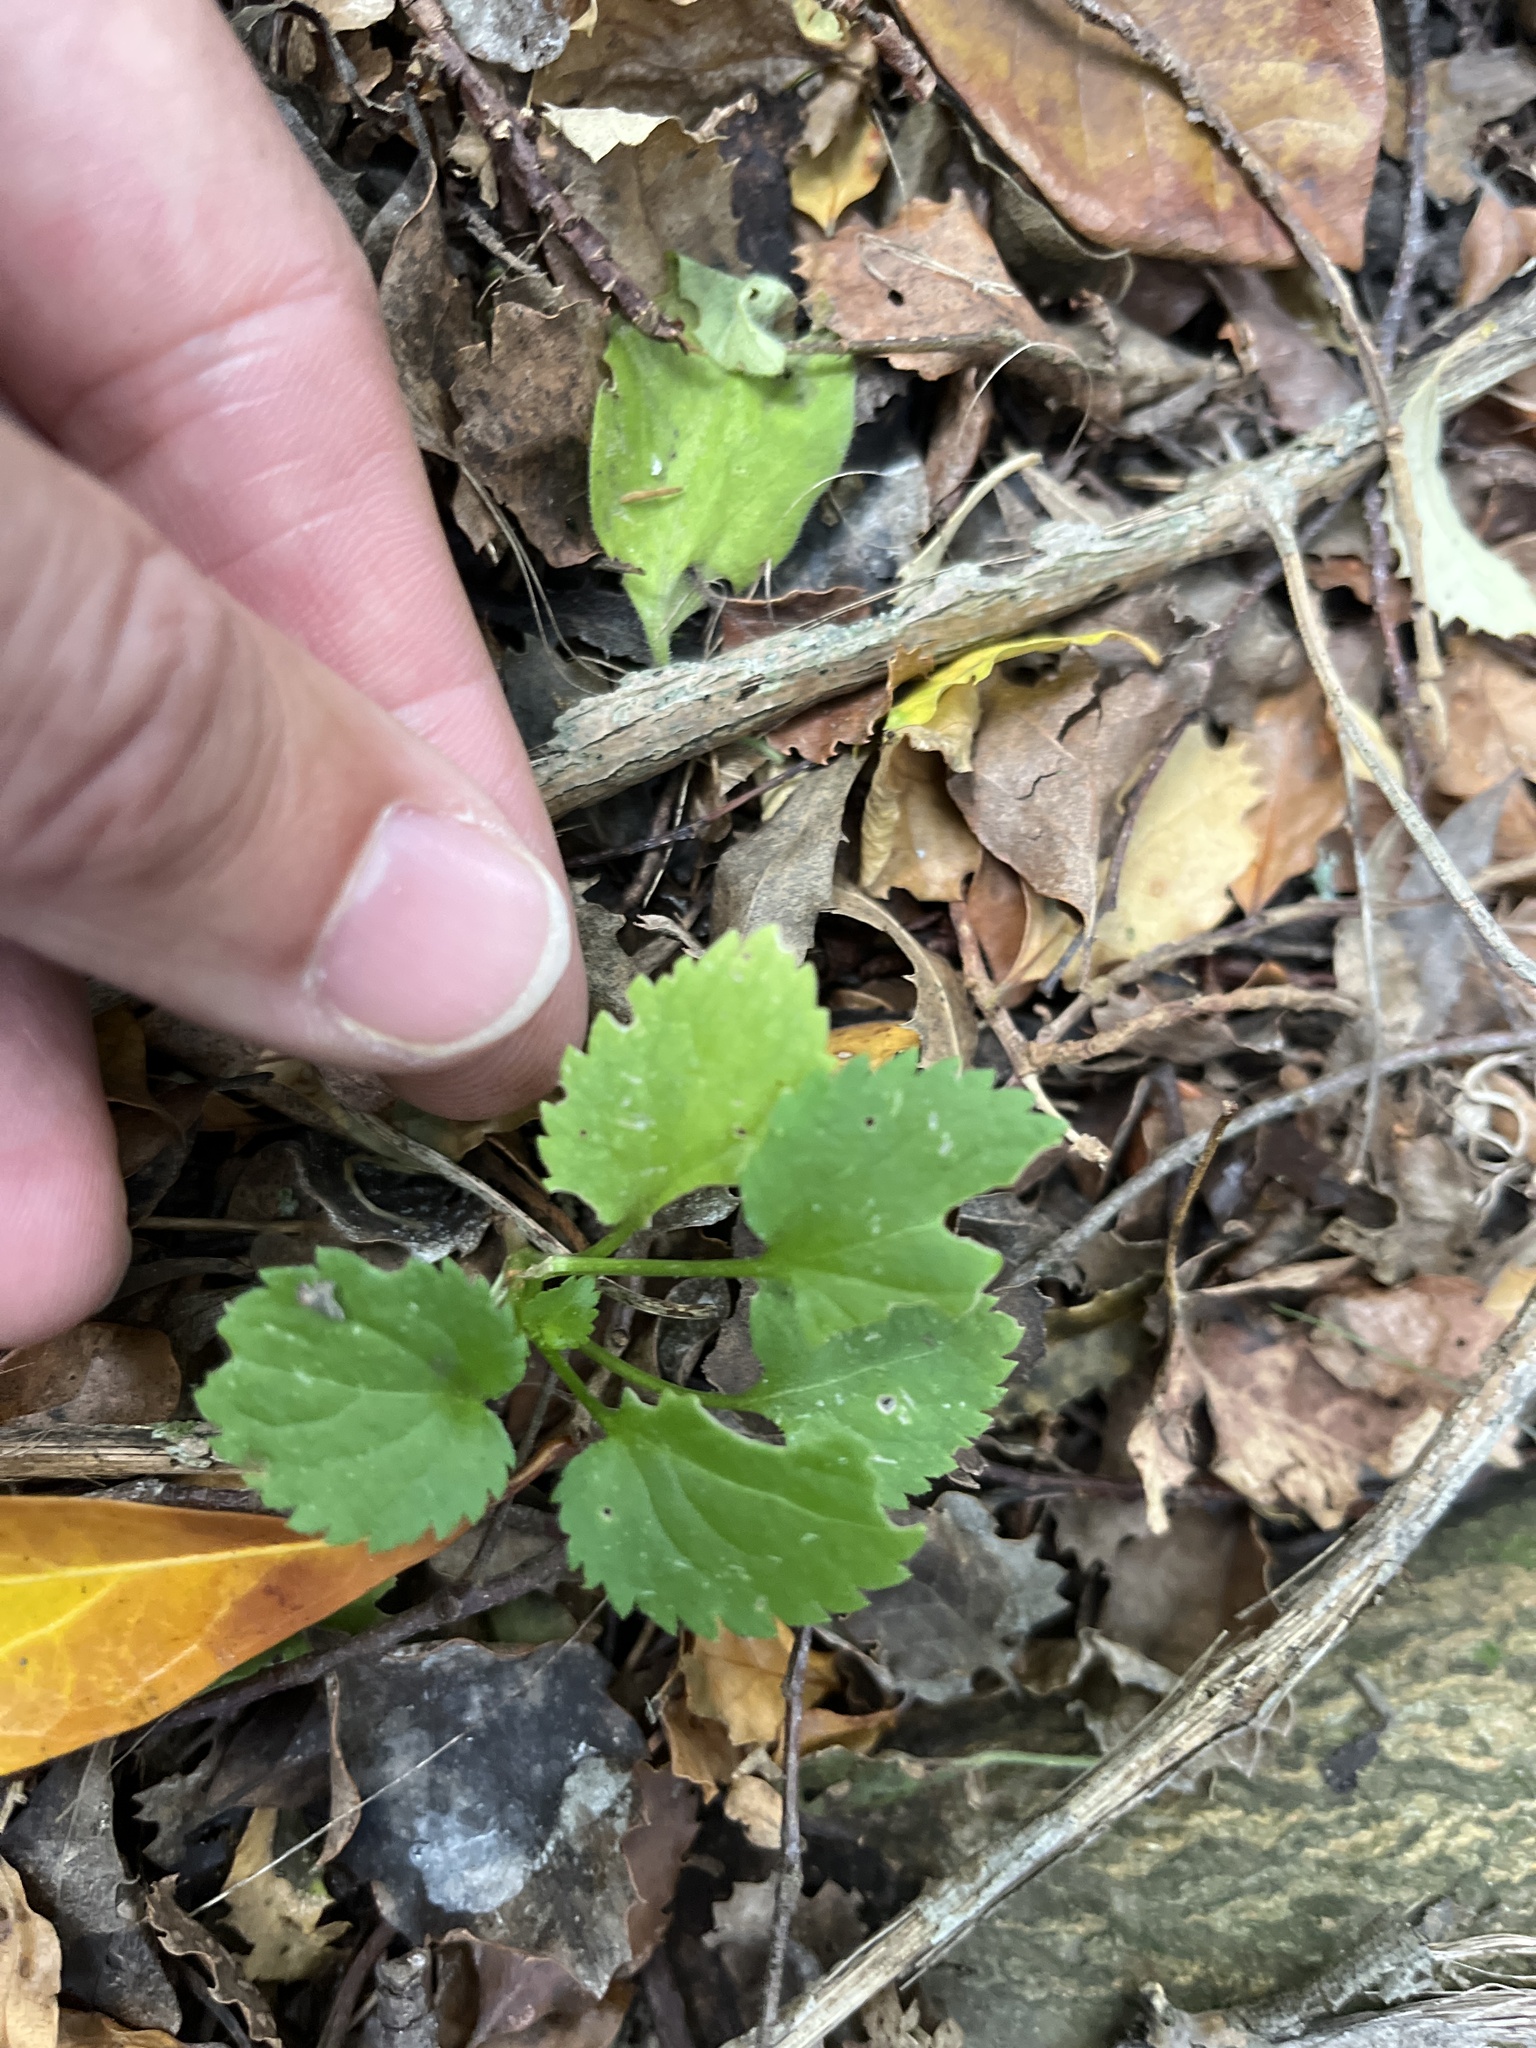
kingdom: Plantae
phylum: Tracheophyta
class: Magnoliopsida
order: Dipsacales
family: Viburnaceae
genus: Sambucus
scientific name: Sambucus nigra
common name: Elder
